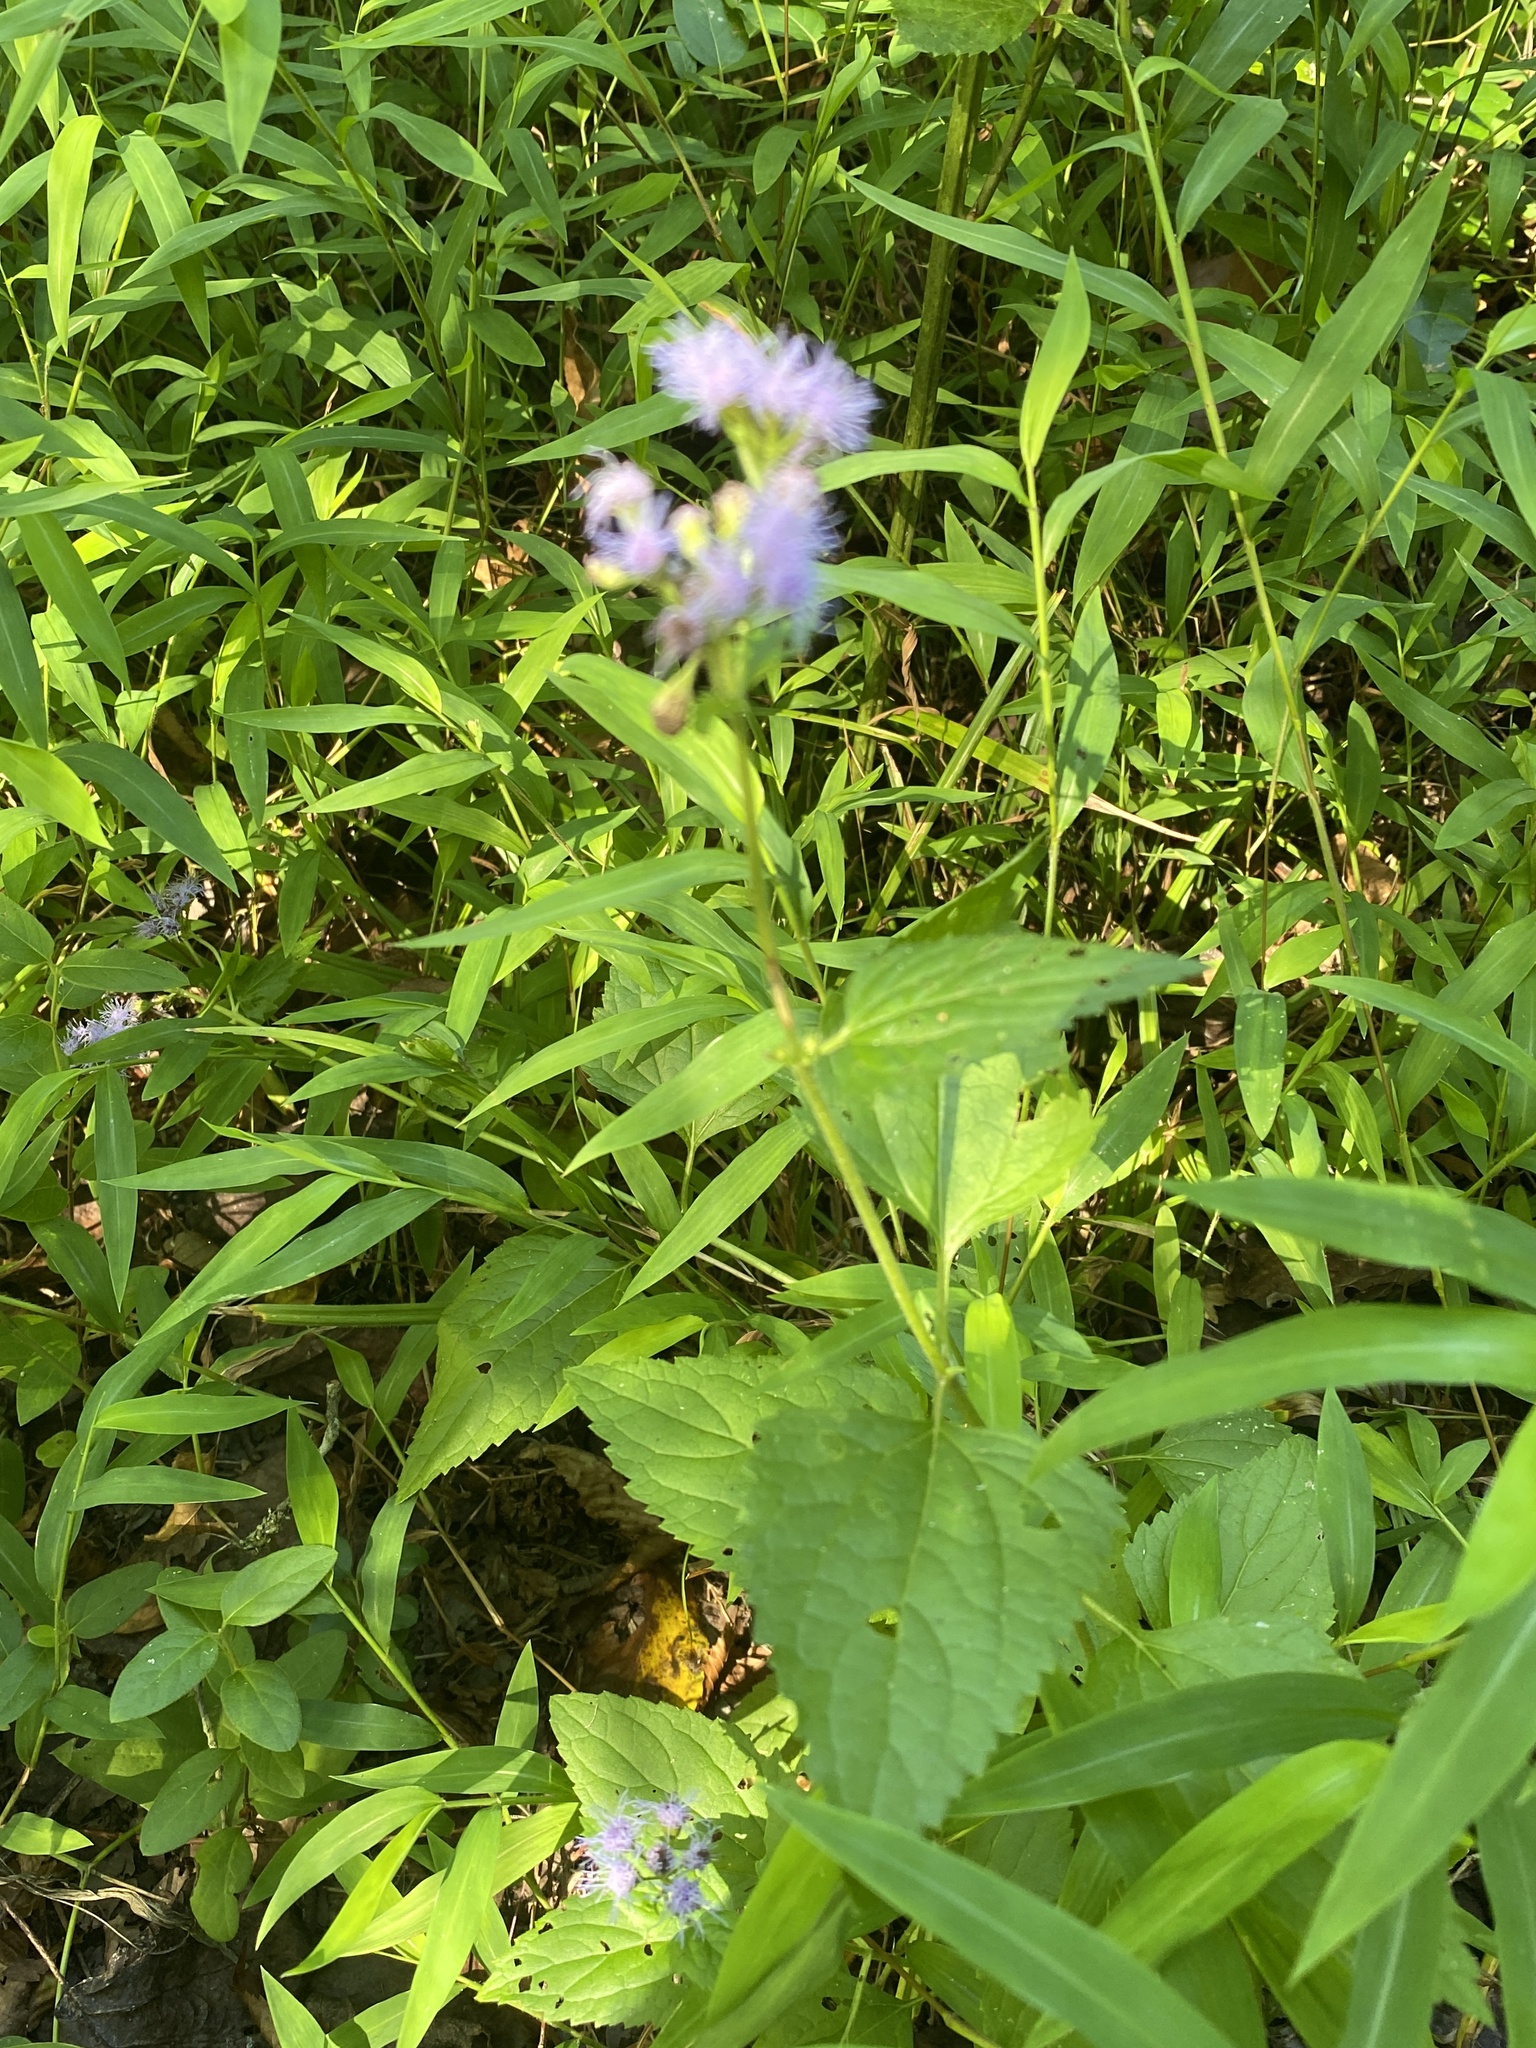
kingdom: Plantae
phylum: Tracheophyta
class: Magnoliopsida
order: Asterales
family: Asteraceae
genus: Conoclinium
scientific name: Conoclinium coelestinum
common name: Blue mistflower
